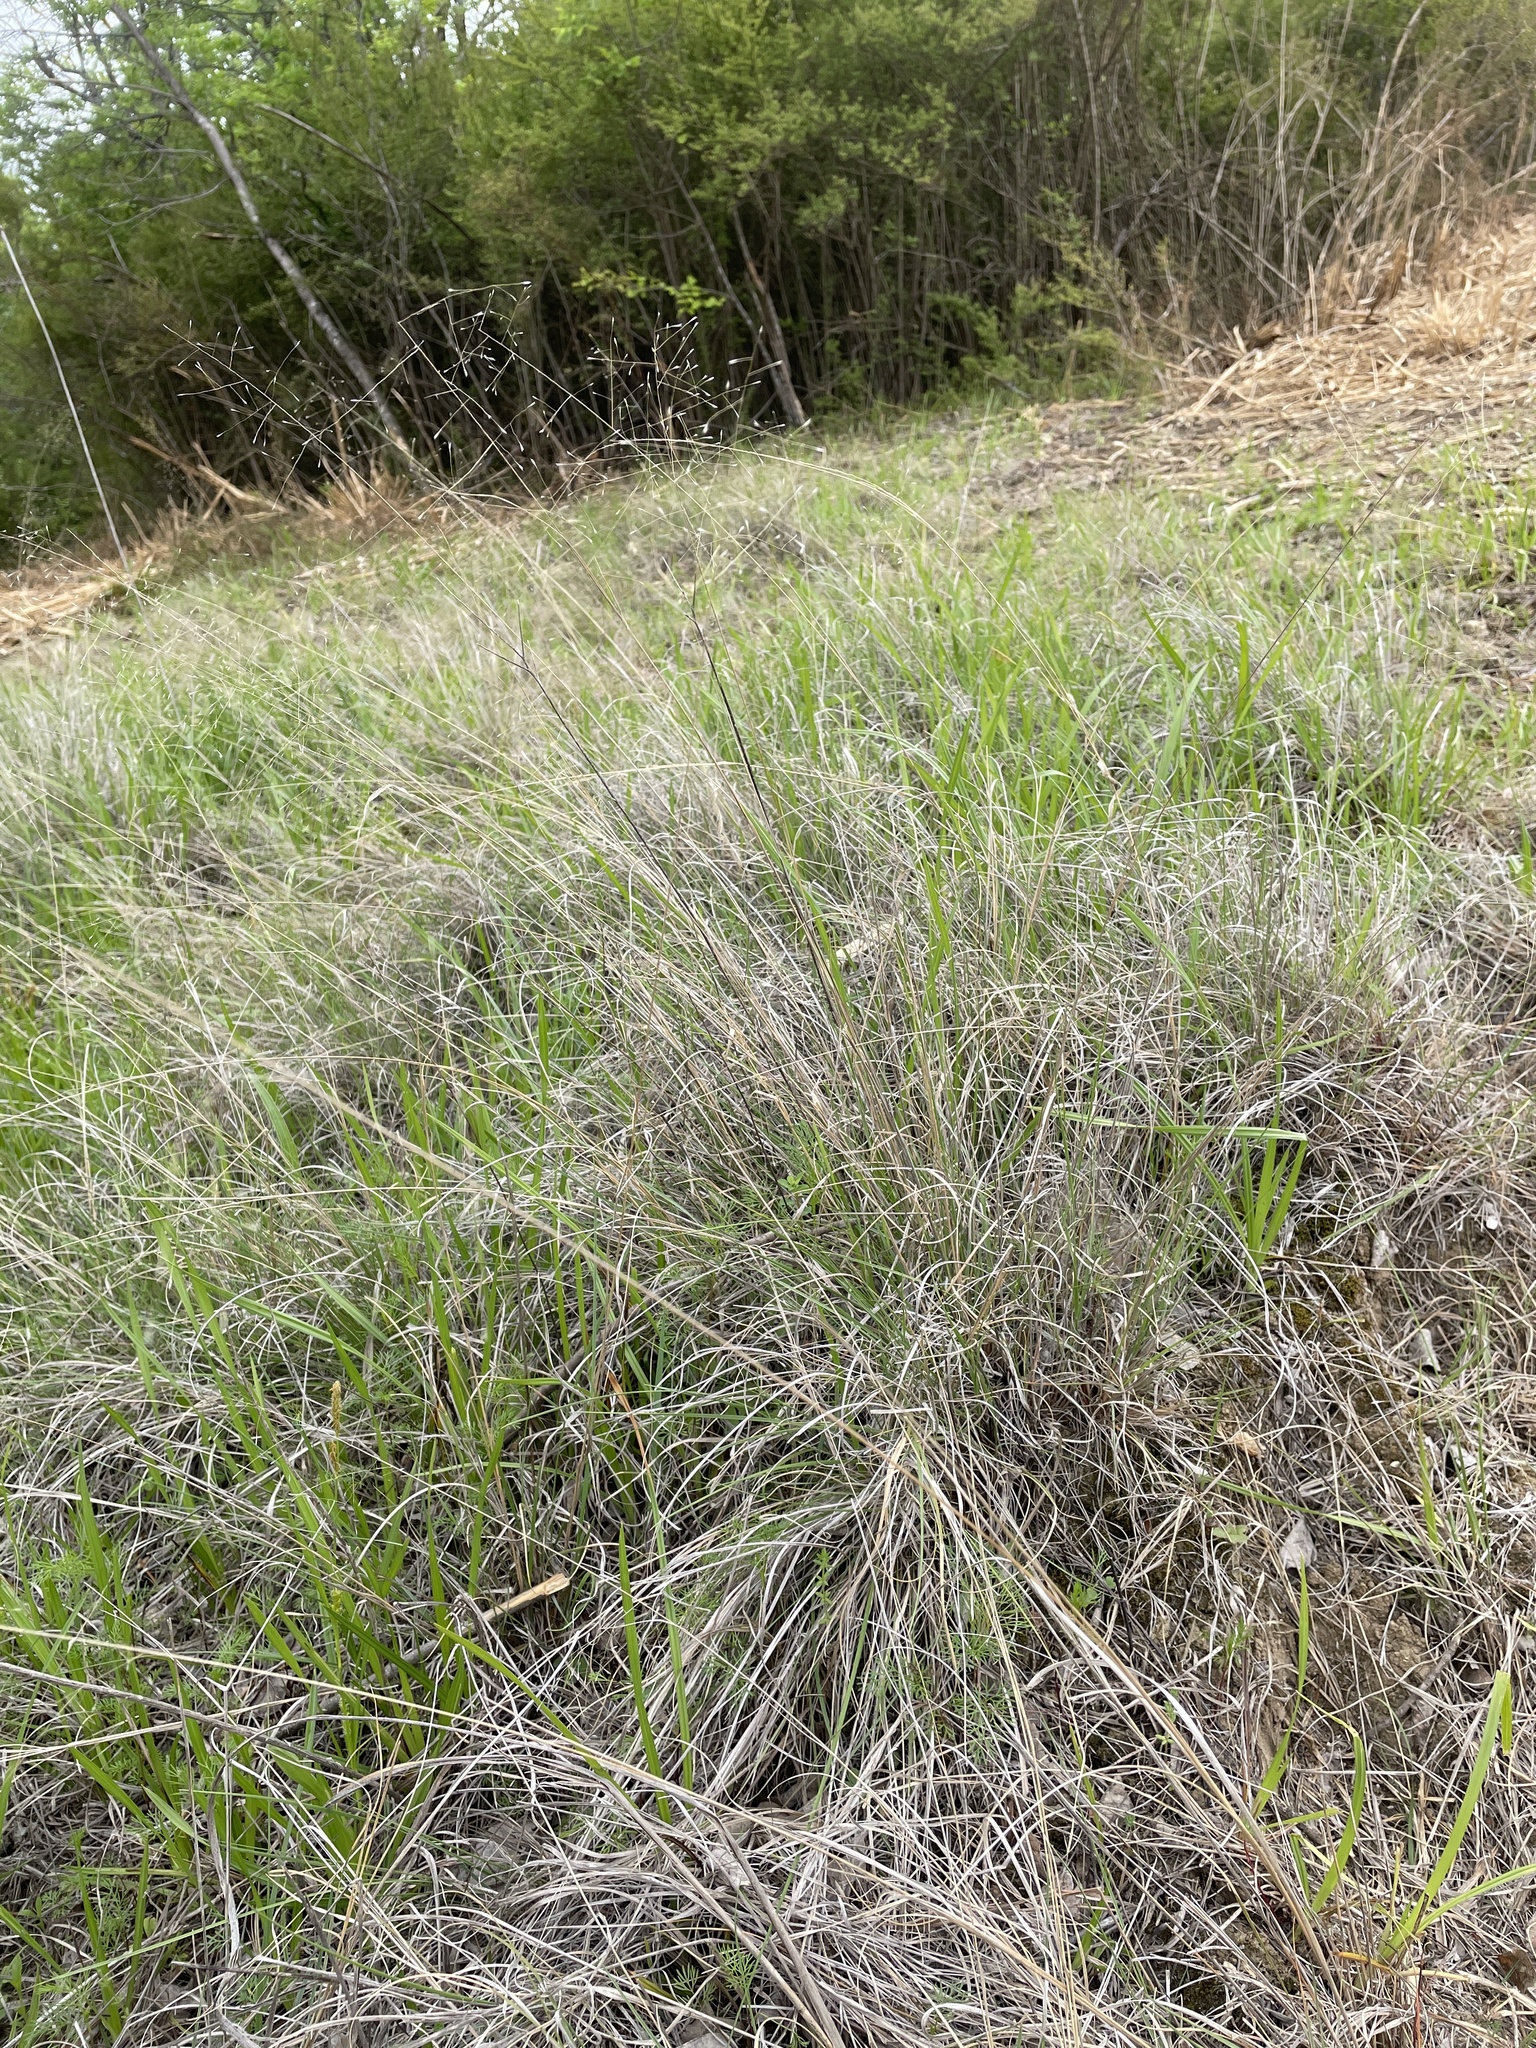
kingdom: Plantae
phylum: Tracheophyta
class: Liliopsida
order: Poales
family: Poaceae
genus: Muhlenbergia
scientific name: Muhlenbergia reverchonii
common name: Seep muhly
